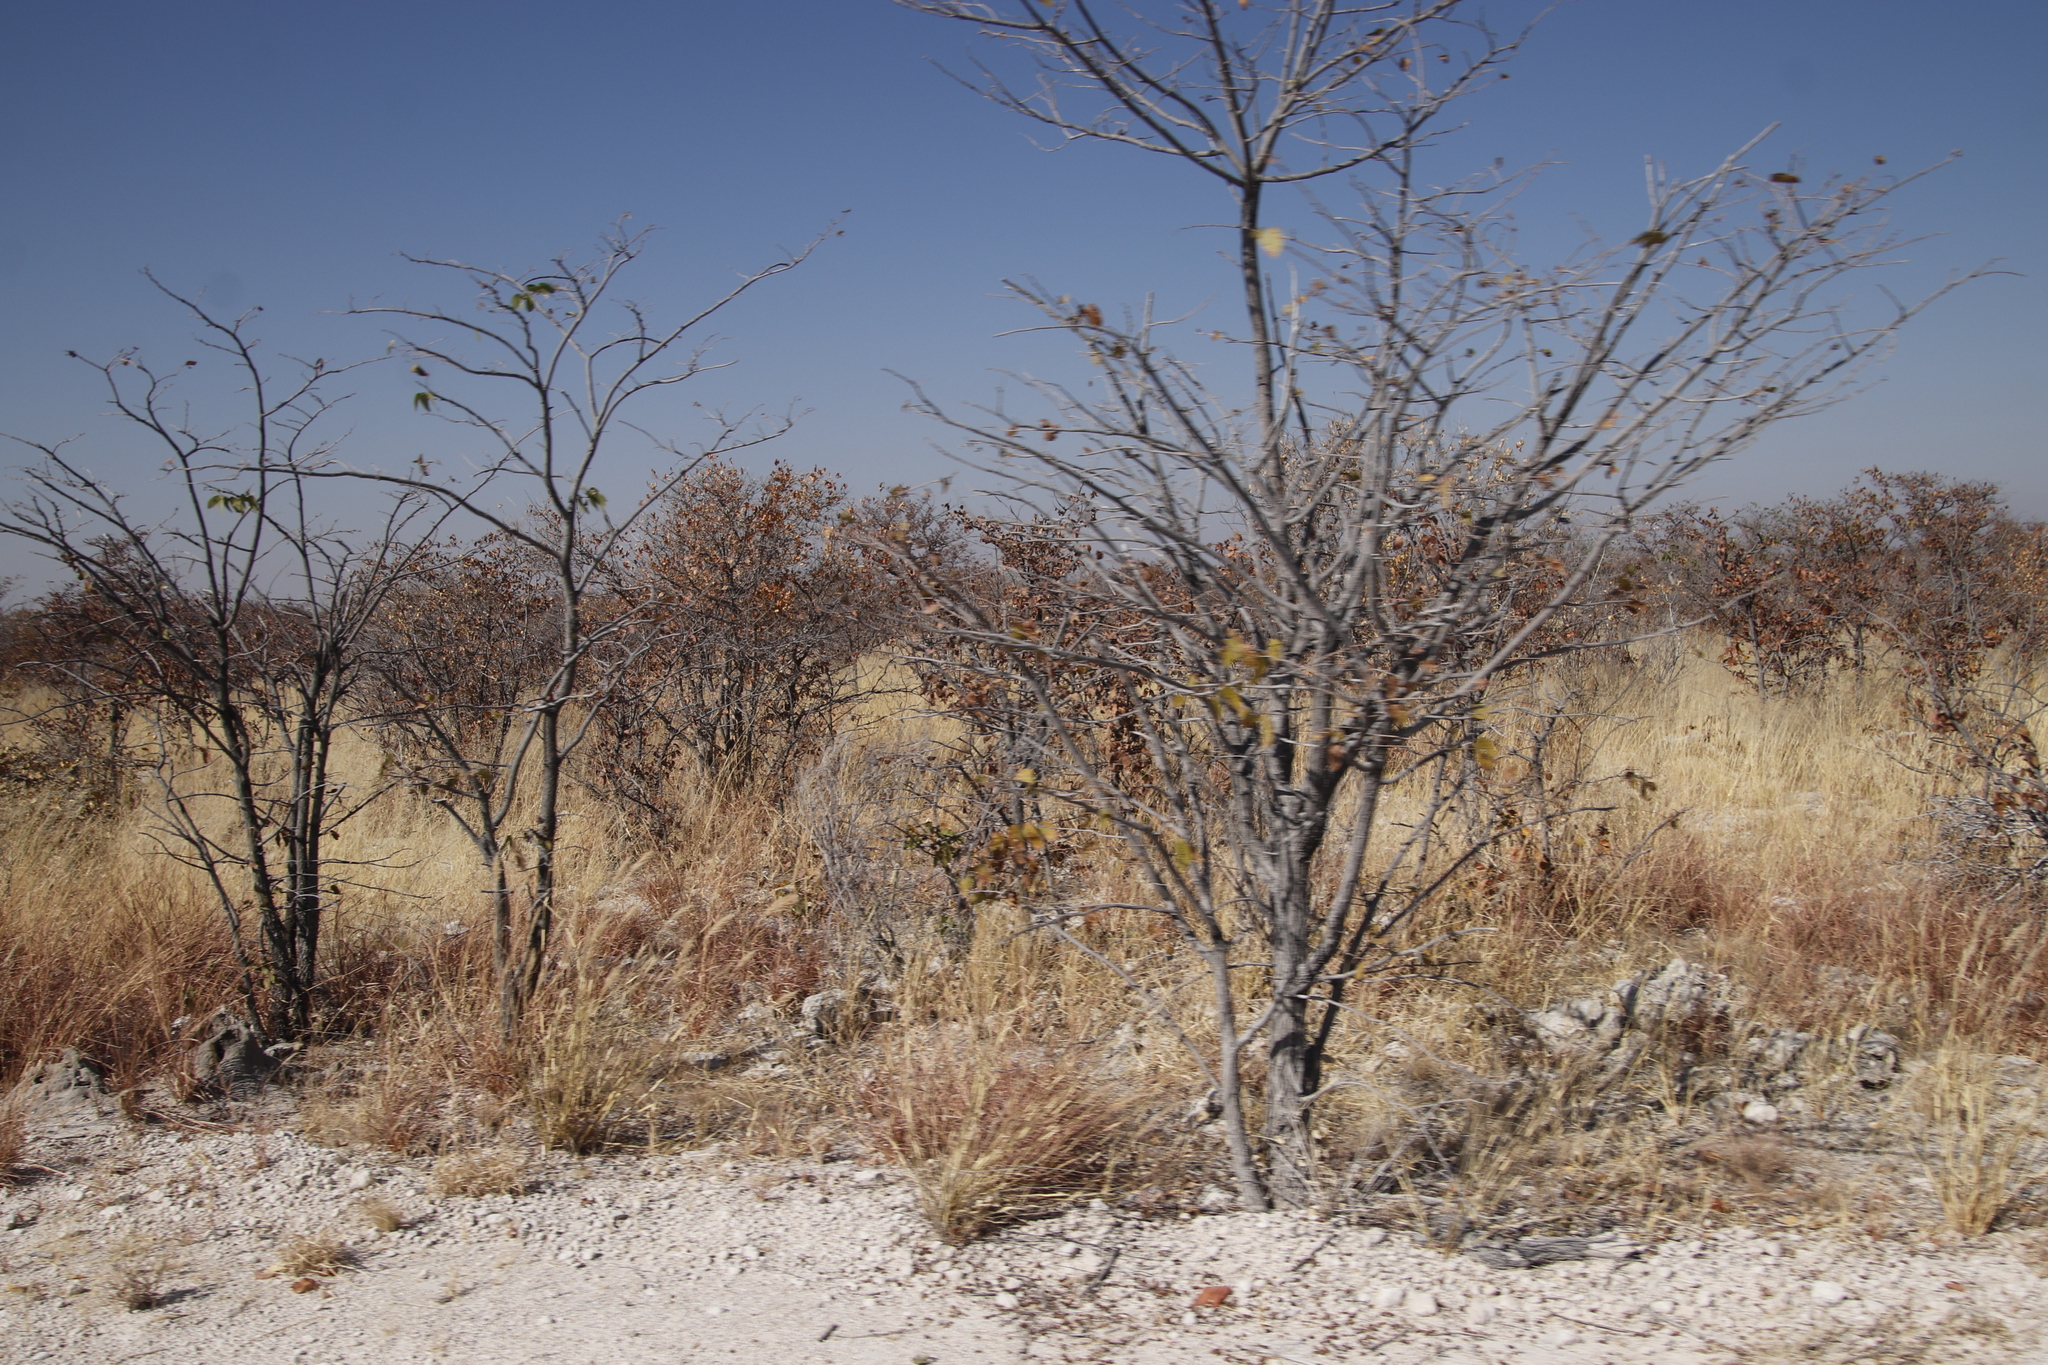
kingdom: Plantae
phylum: Tracheophyta
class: Magnoliopsida
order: Fabales
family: Fabaceae
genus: Colophospermum
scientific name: Colophospermum mopane
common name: Mopane
